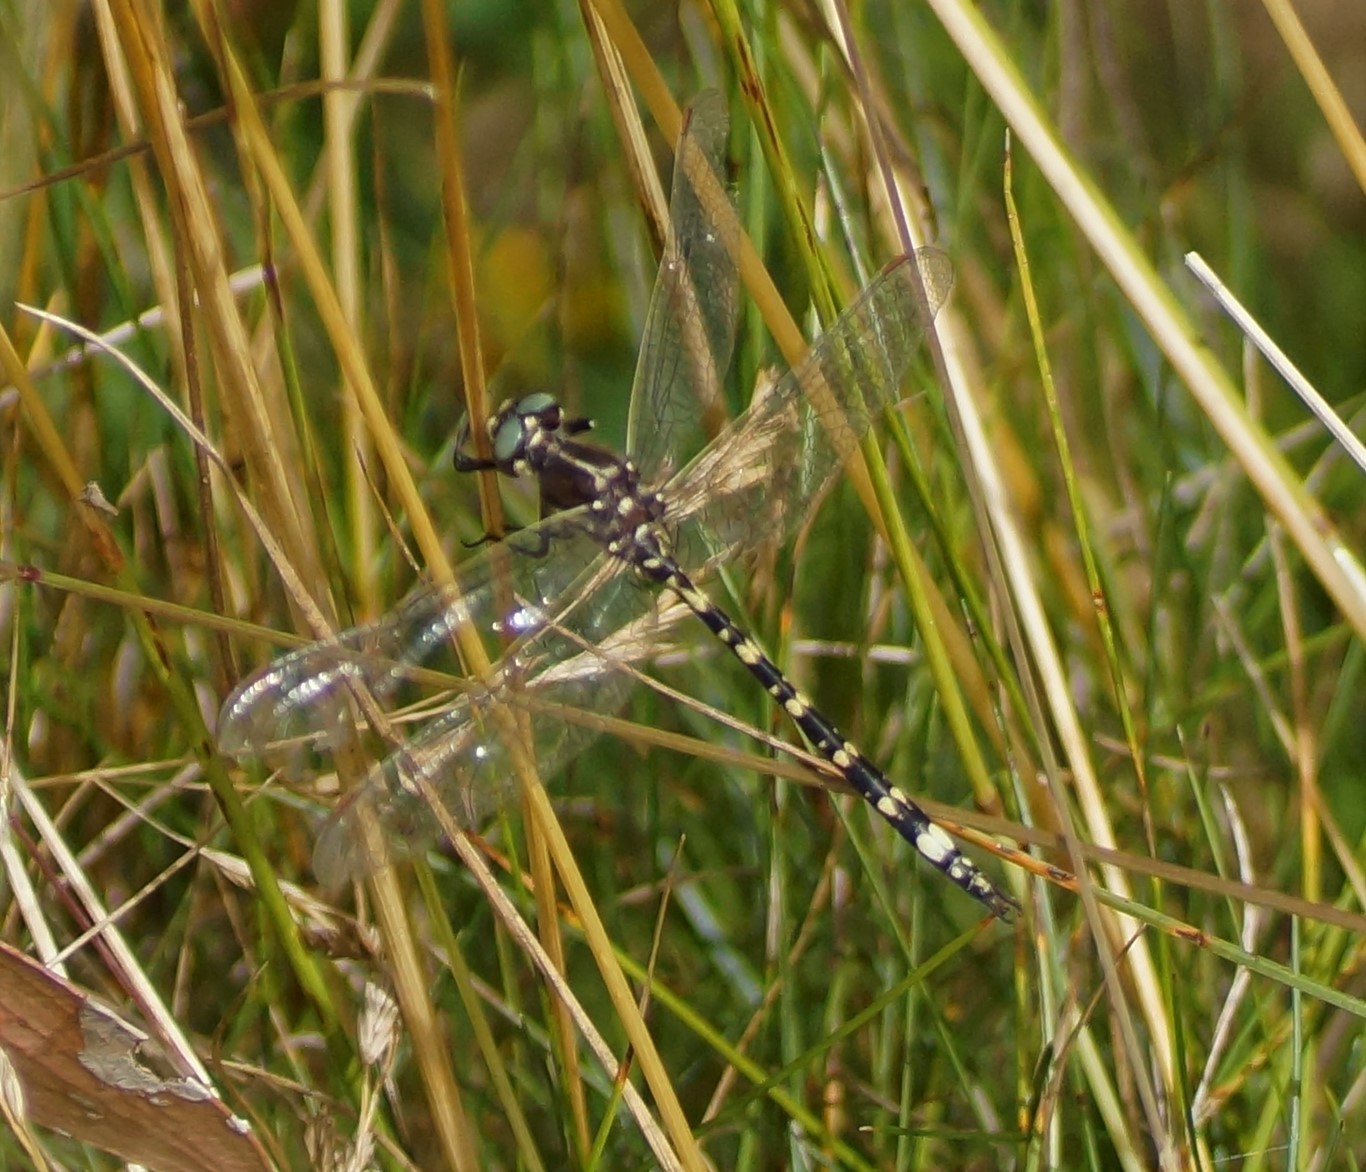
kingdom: Animalia
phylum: Arthropoda
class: Insecta
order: Odonata
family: Synthemistidae
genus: Synthemis
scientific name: Synthemis eustalacta
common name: Swamp tigertail
